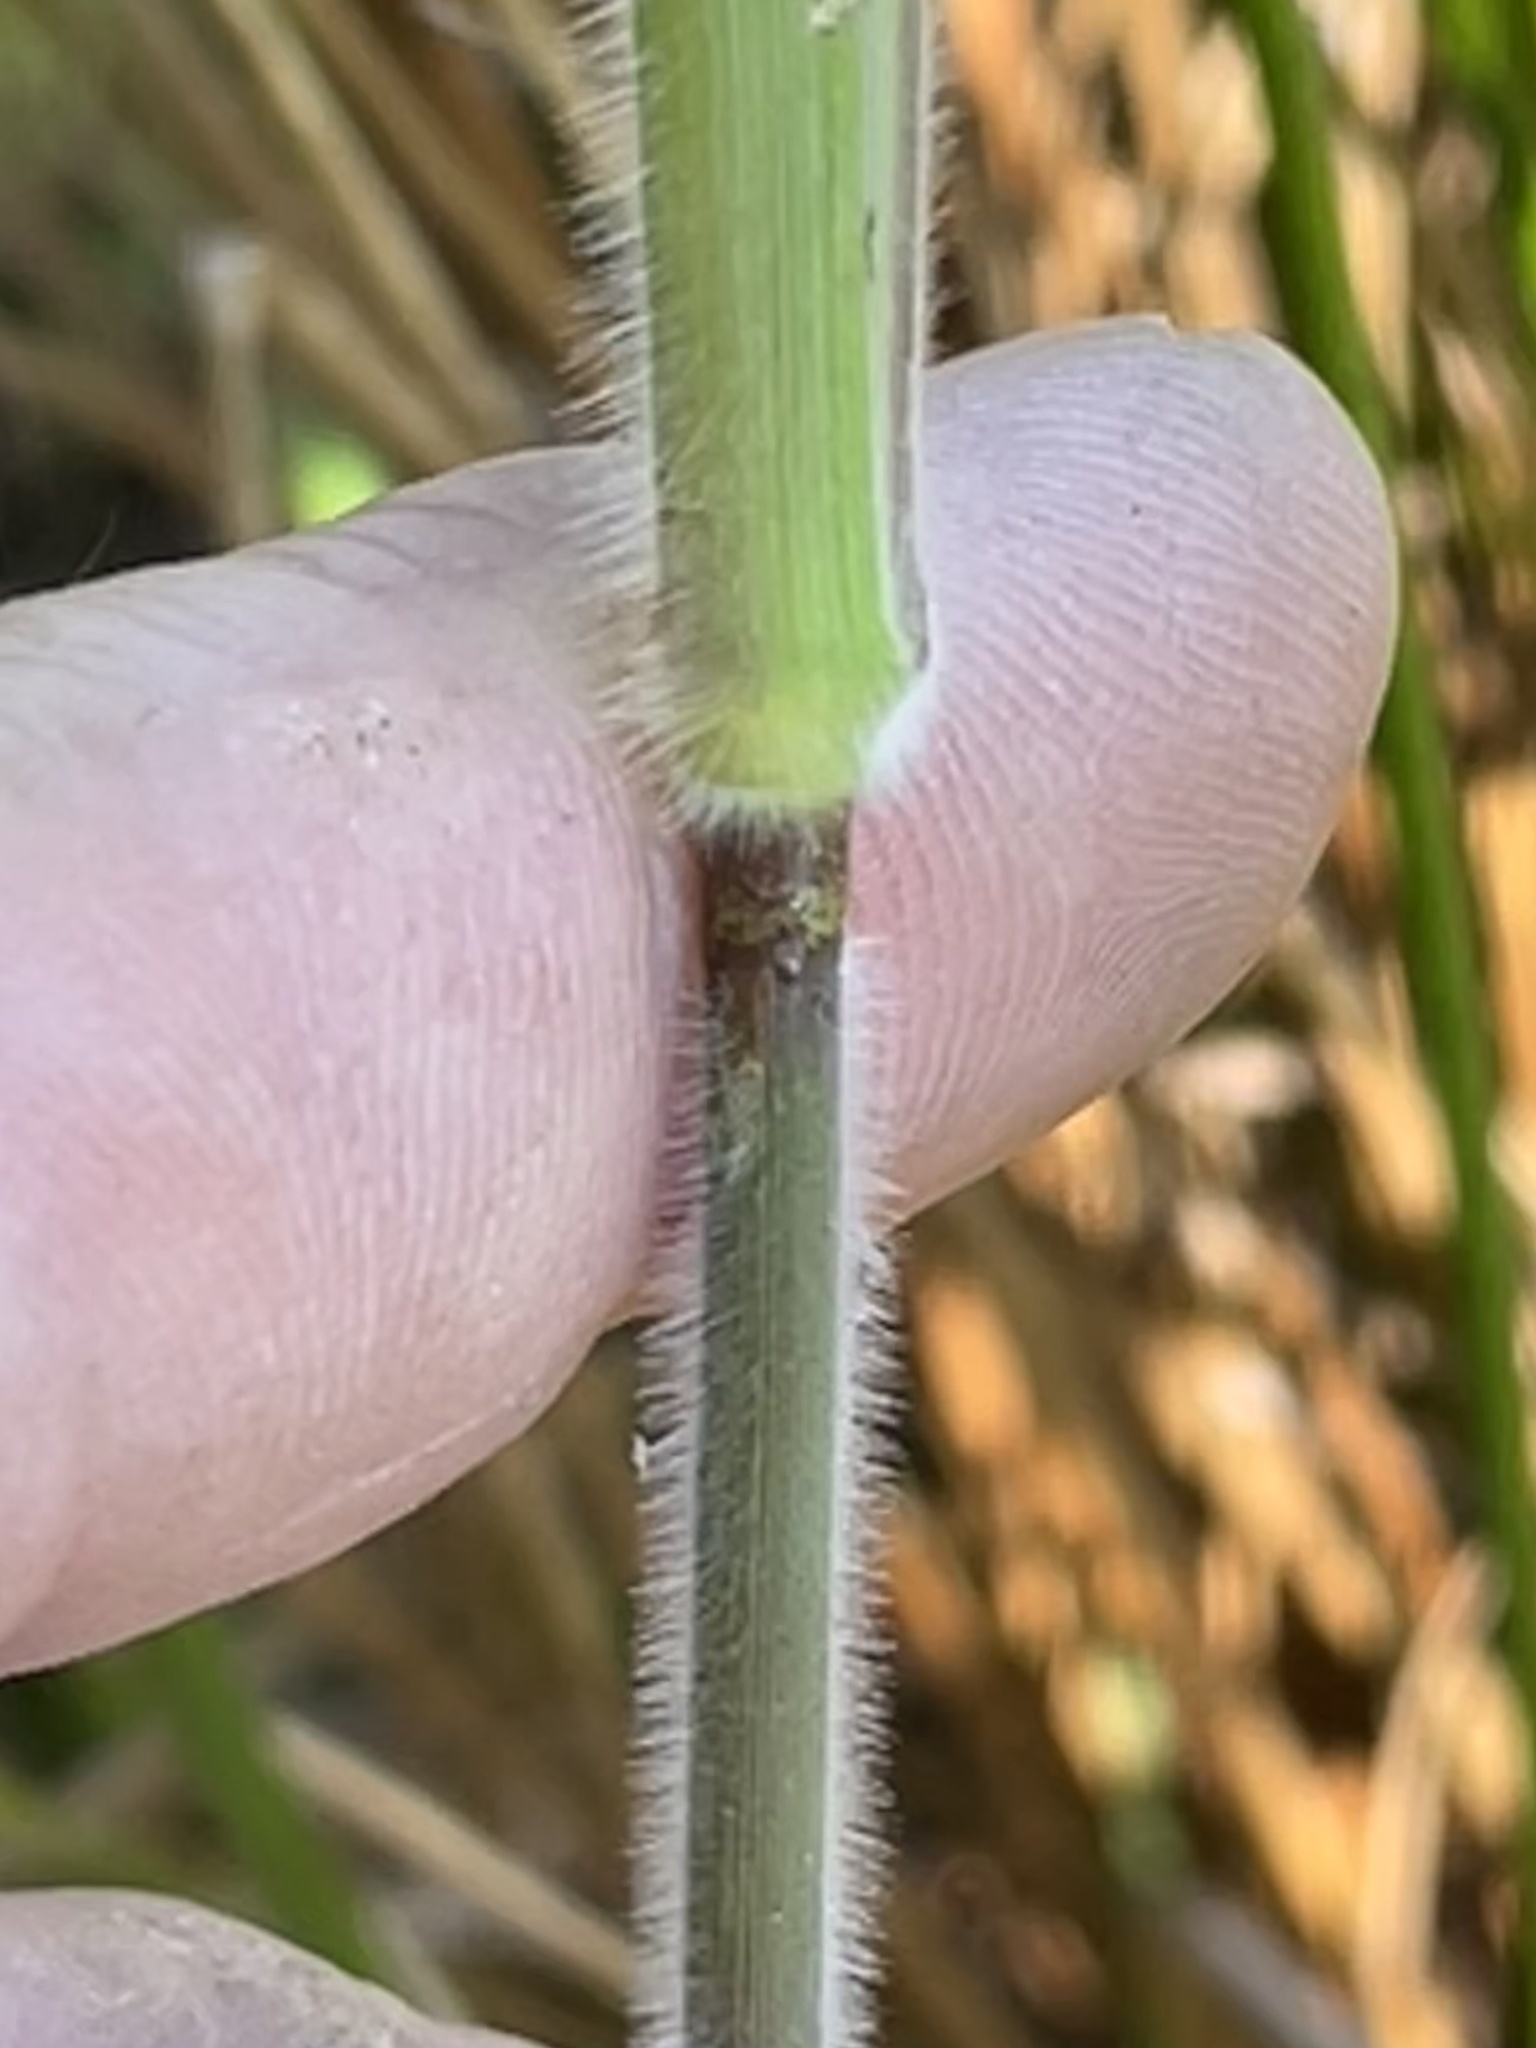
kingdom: Plantae
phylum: Tracheophyta
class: Liliopsida
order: Poales
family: Poaceae
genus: Dichanthelium
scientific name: Dichanthelium scoparium
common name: Velvety panic grass
